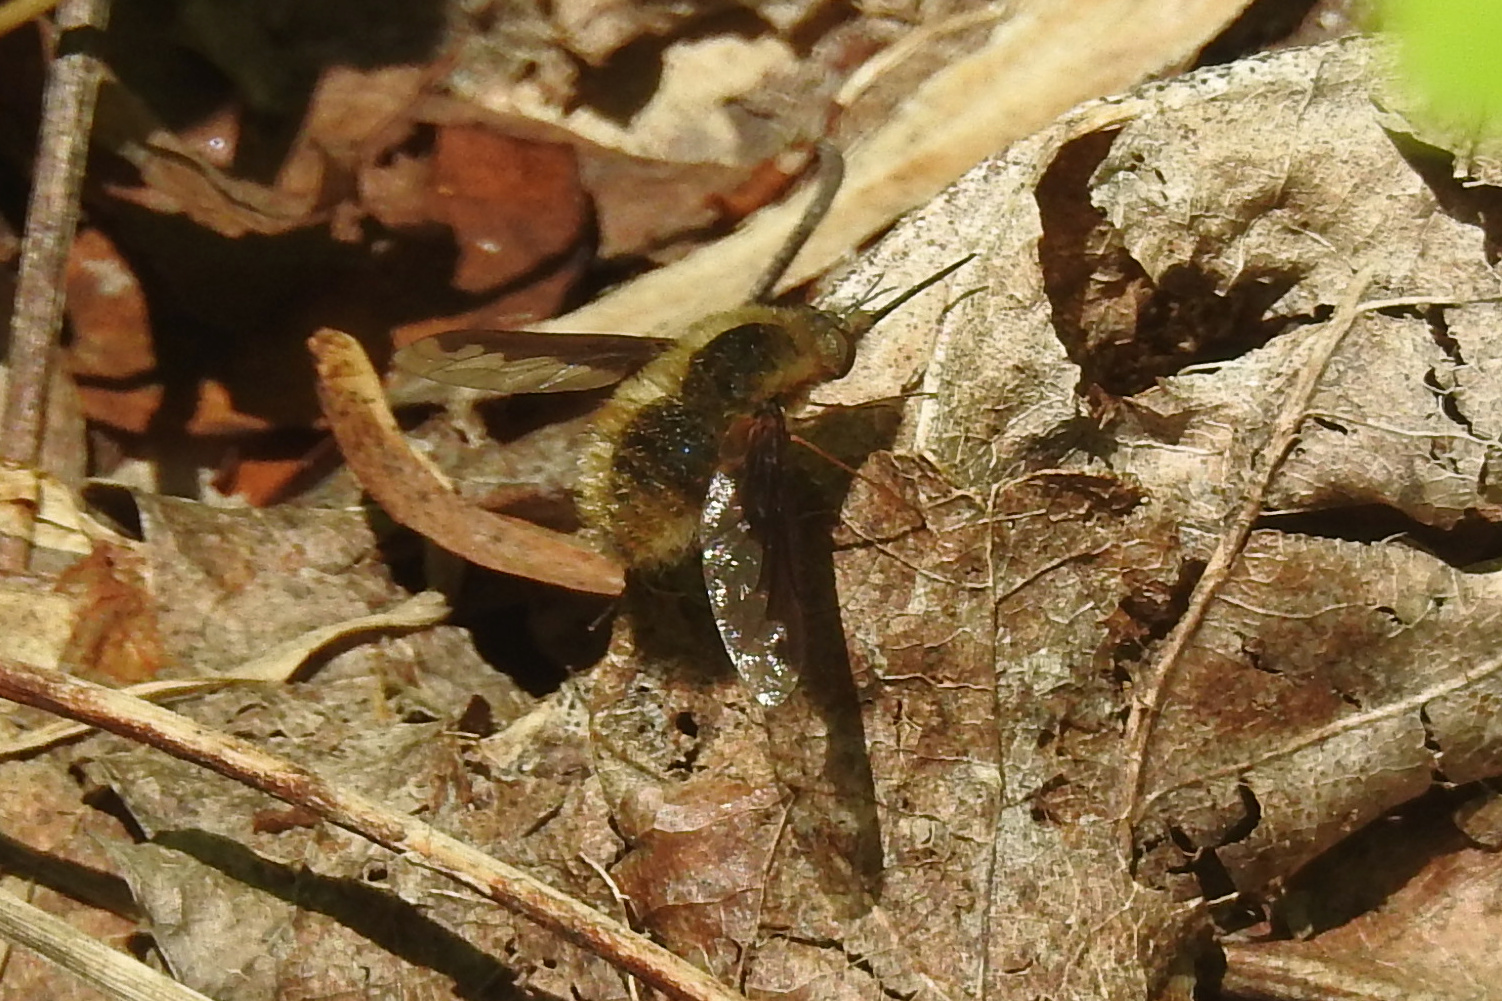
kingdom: Animalia
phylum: Arthropoda
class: Insecta
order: Diptera
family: Bombyliidae
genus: Bombylius
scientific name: Bombylius major
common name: Bee fly
